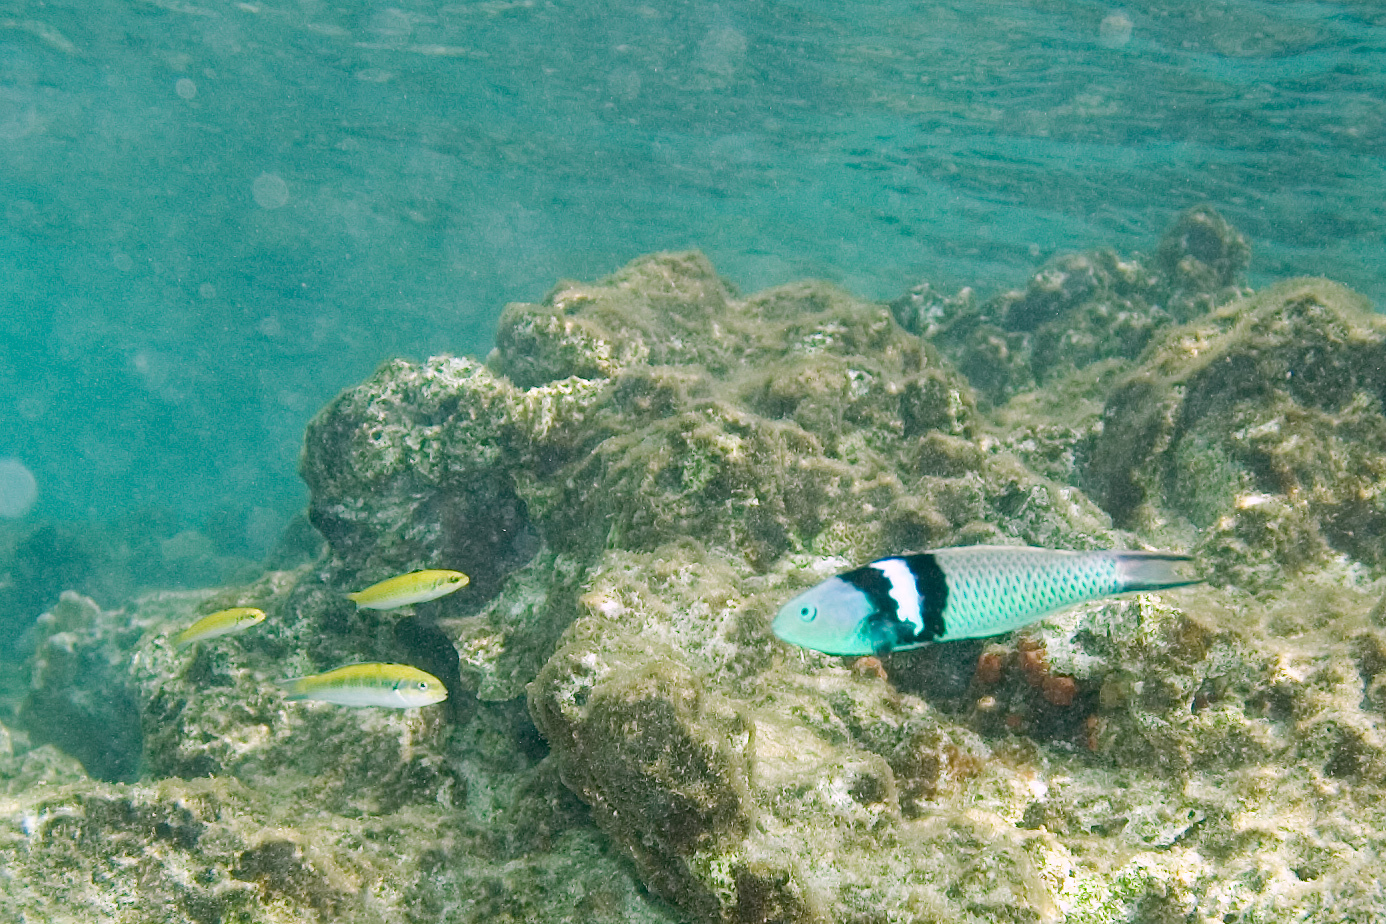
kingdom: Animalia
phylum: Chordata
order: Perciformes
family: Labridae
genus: Thalassoma
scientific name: Thalassoma bifasciatum
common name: Bluehead wrasse
